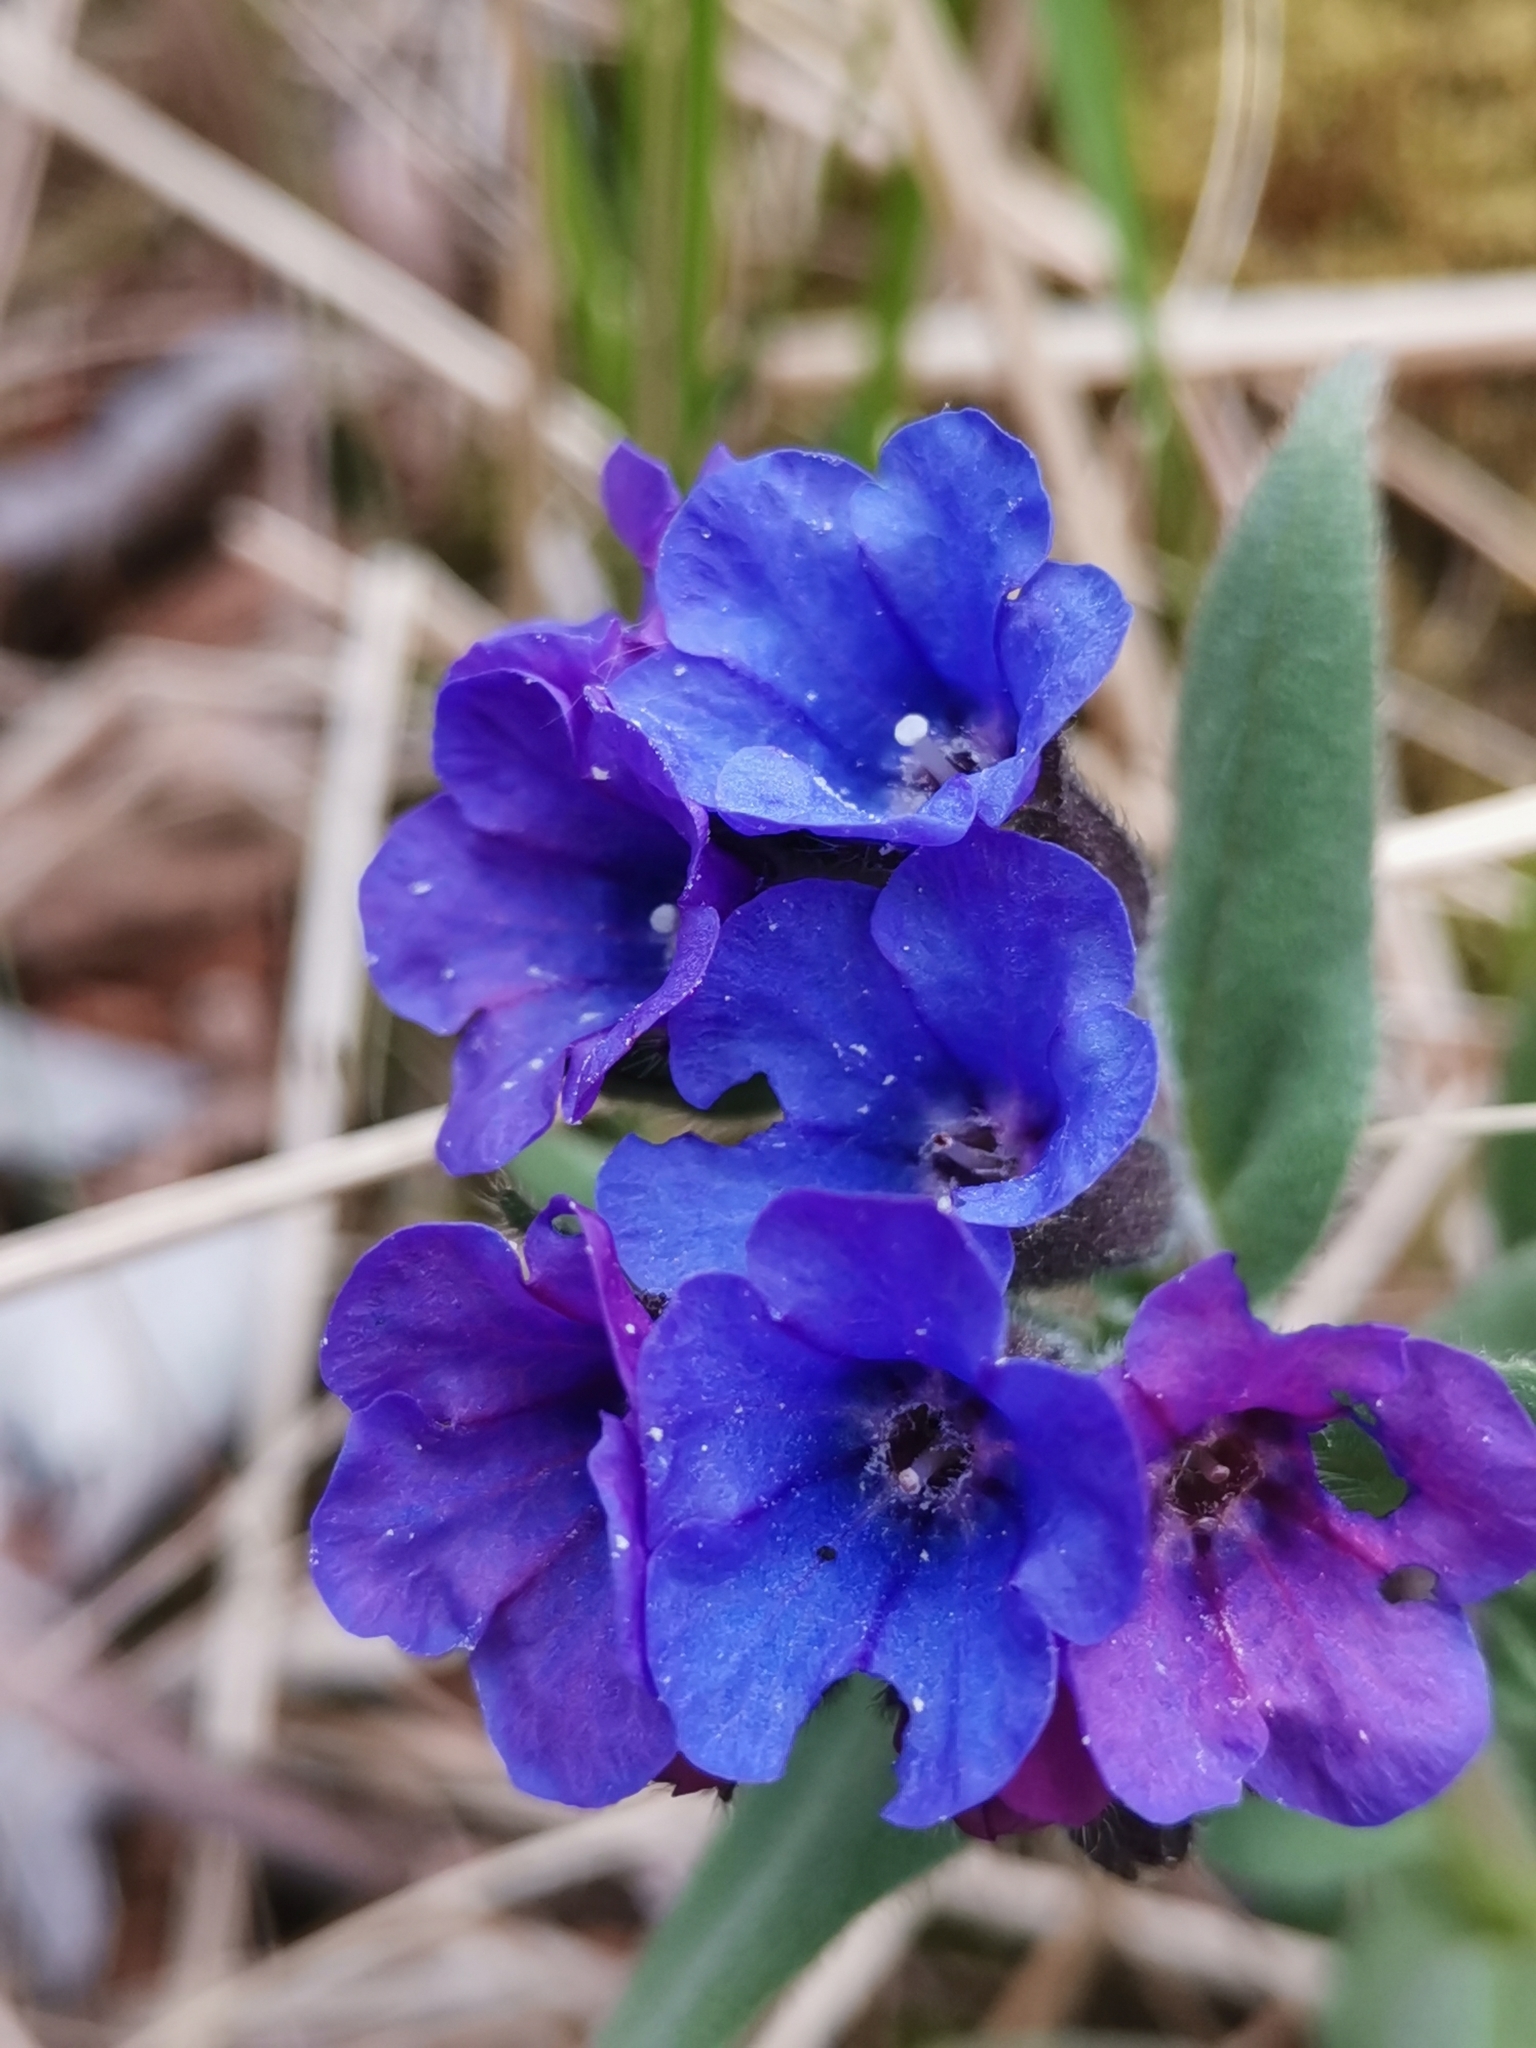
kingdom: Plantae
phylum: Tracheophyta
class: Magnoliopsida
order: Boraginales
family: Boraginaceae
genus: Pulmonaria
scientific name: Pulmonaria australis
